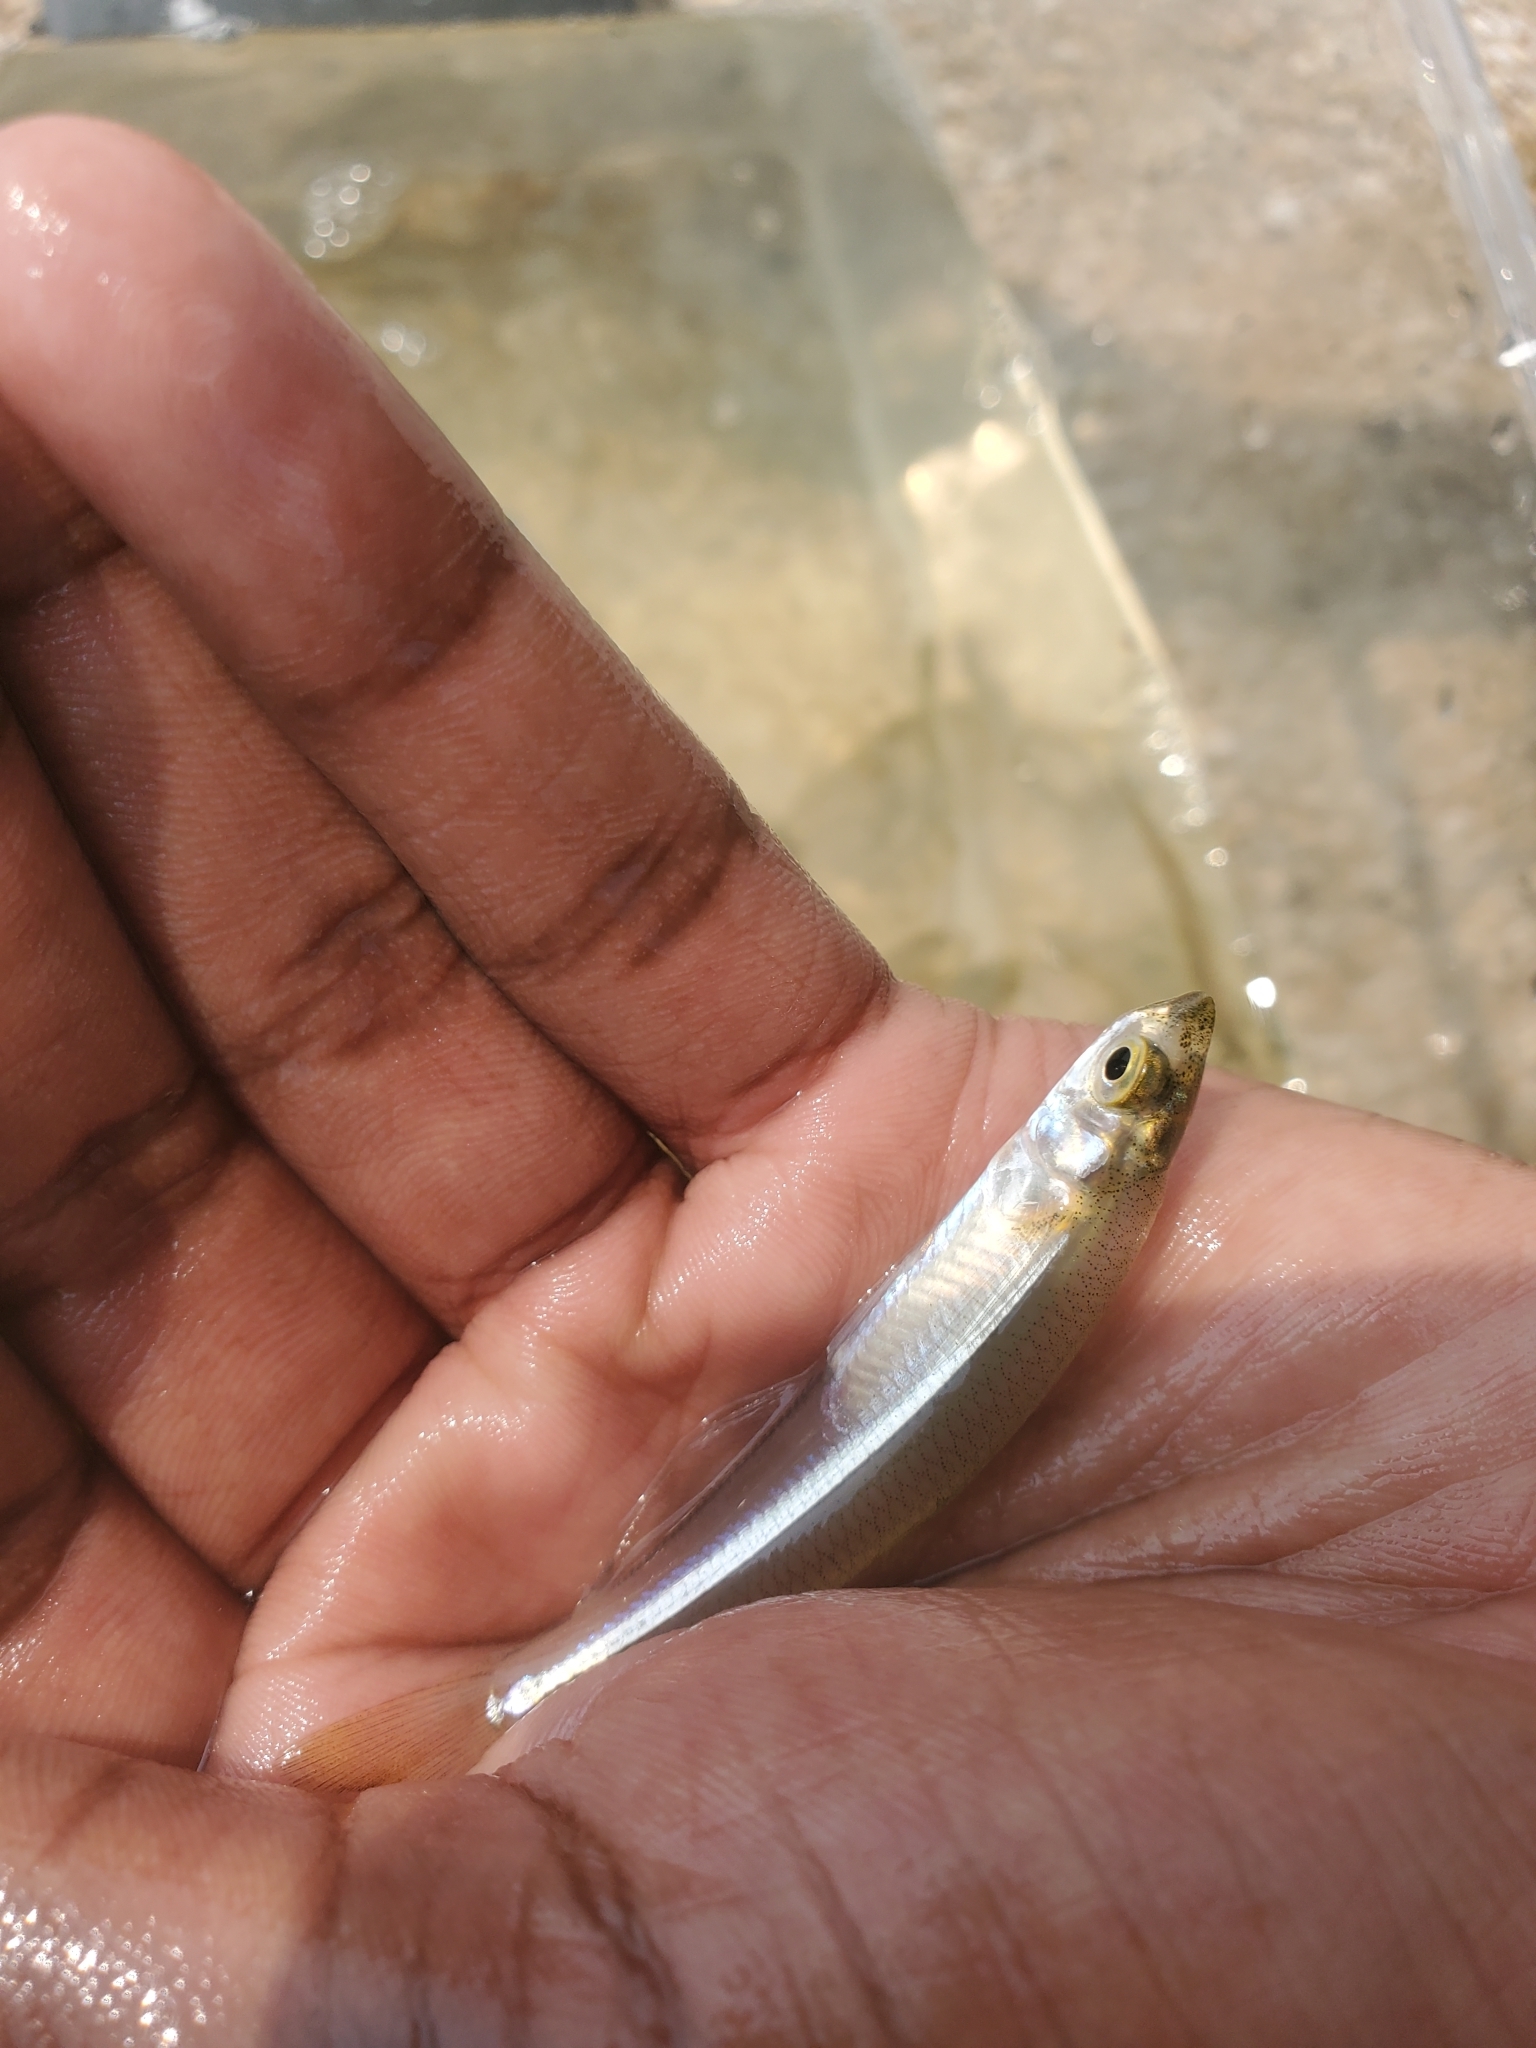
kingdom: Animalia
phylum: Chordata
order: Atheriniformes
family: Atherinopsidae
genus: Menidia
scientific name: Menidia menidia
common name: Atlantic silverside
